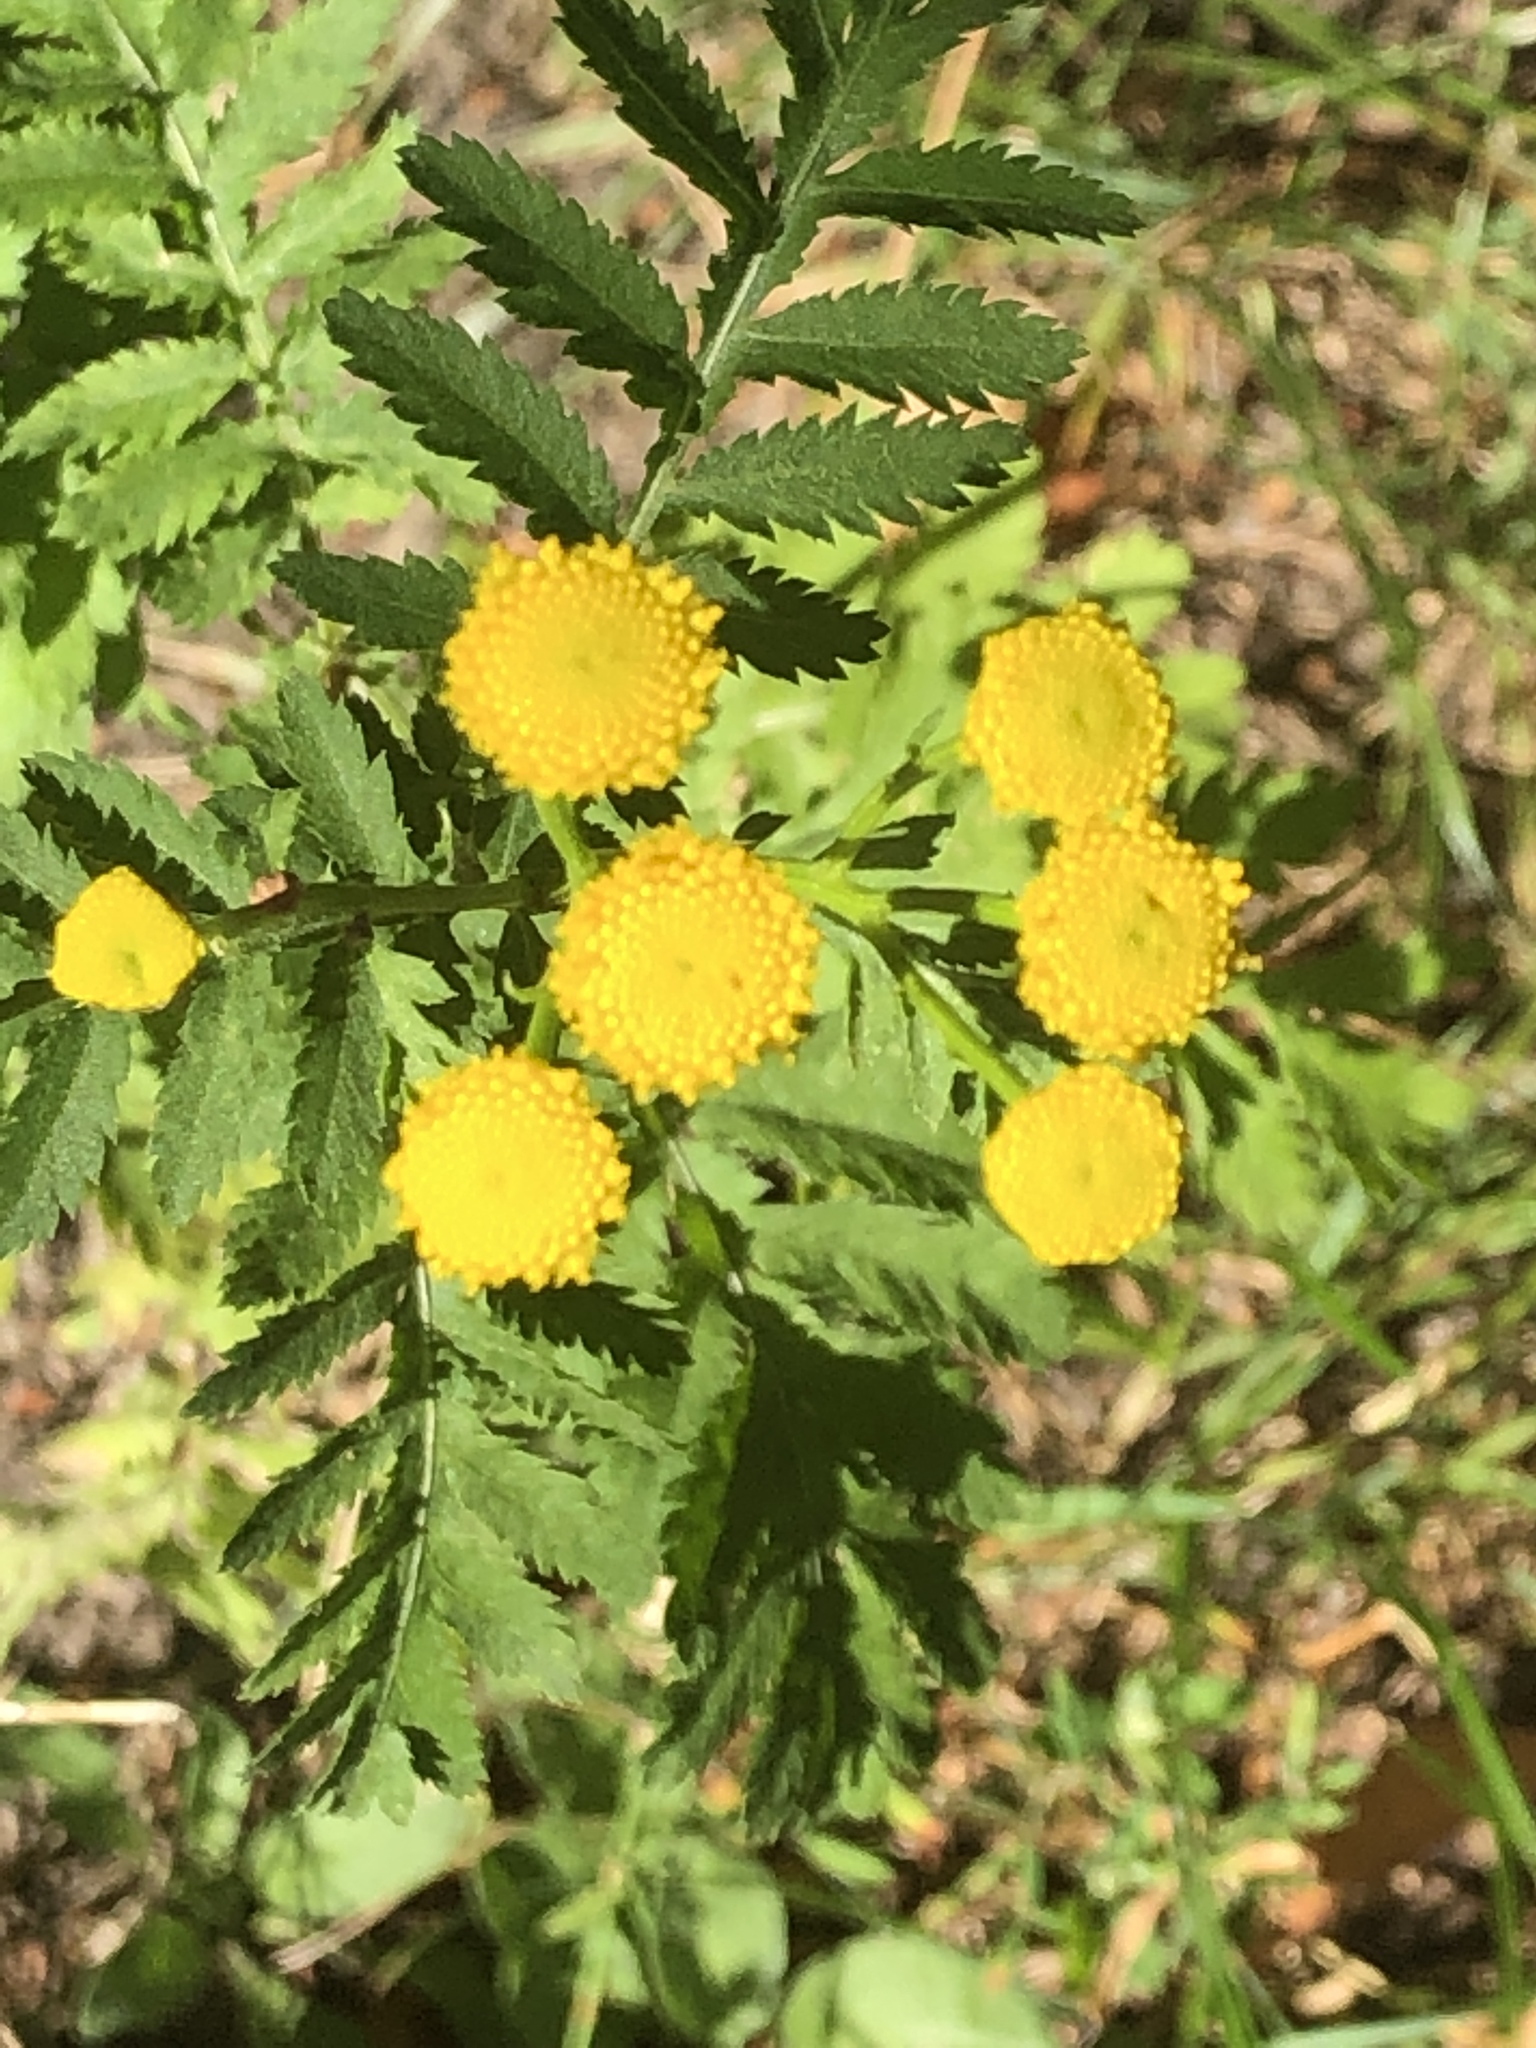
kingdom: Plantae
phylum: Tracheophyta
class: Magnoliopsida
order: Asterales
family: Asteraceae
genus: Tanacetum
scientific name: Tanacetum vulgare
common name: Common tansy
